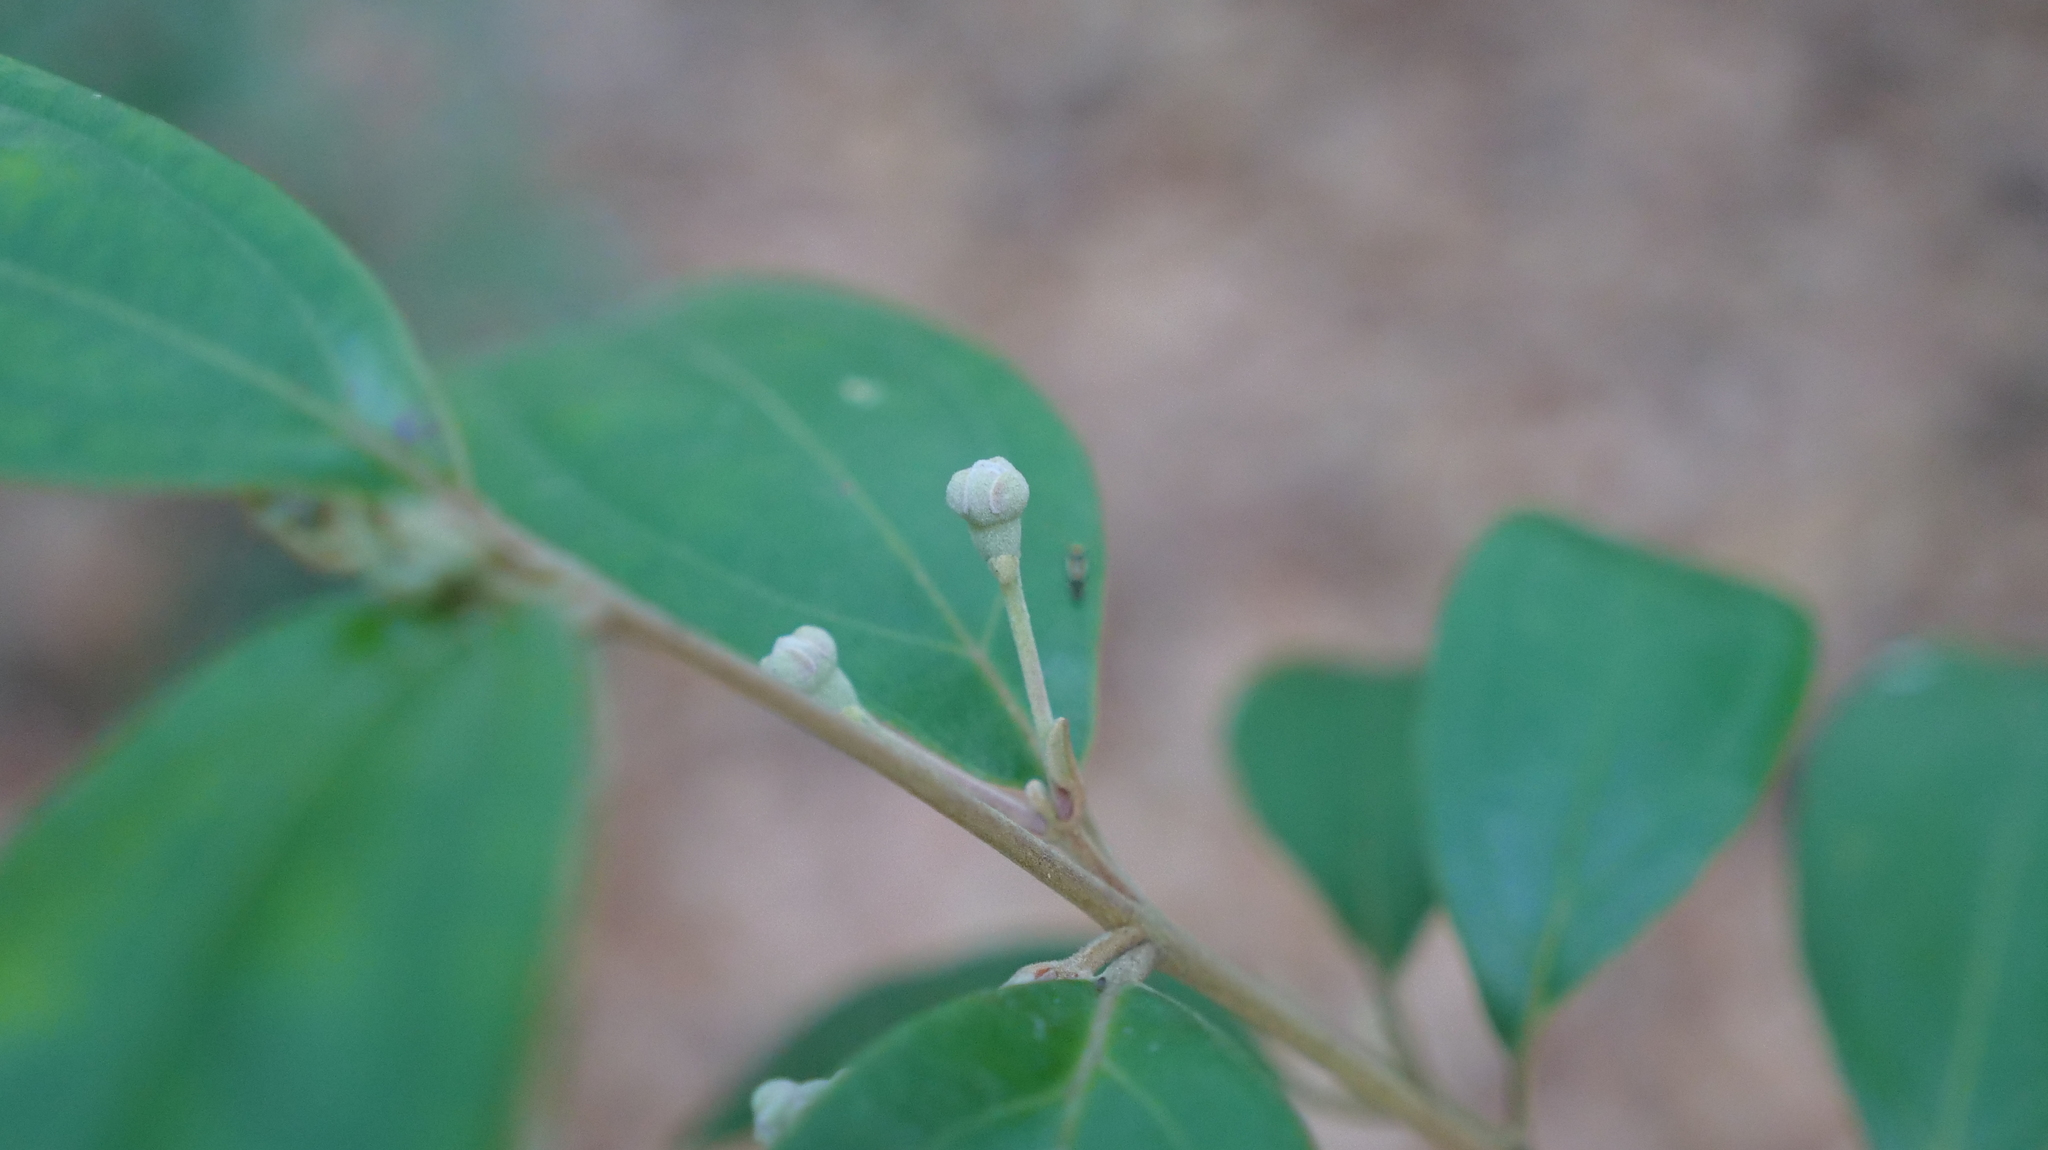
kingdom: Plantae
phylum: Tracheophyta
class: Magnoliopsida
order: Myrtales
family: Myrtaceae
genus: Rhodomyrtus
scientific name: Rhodomyrtus tomentosa
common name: Rose myrtle
